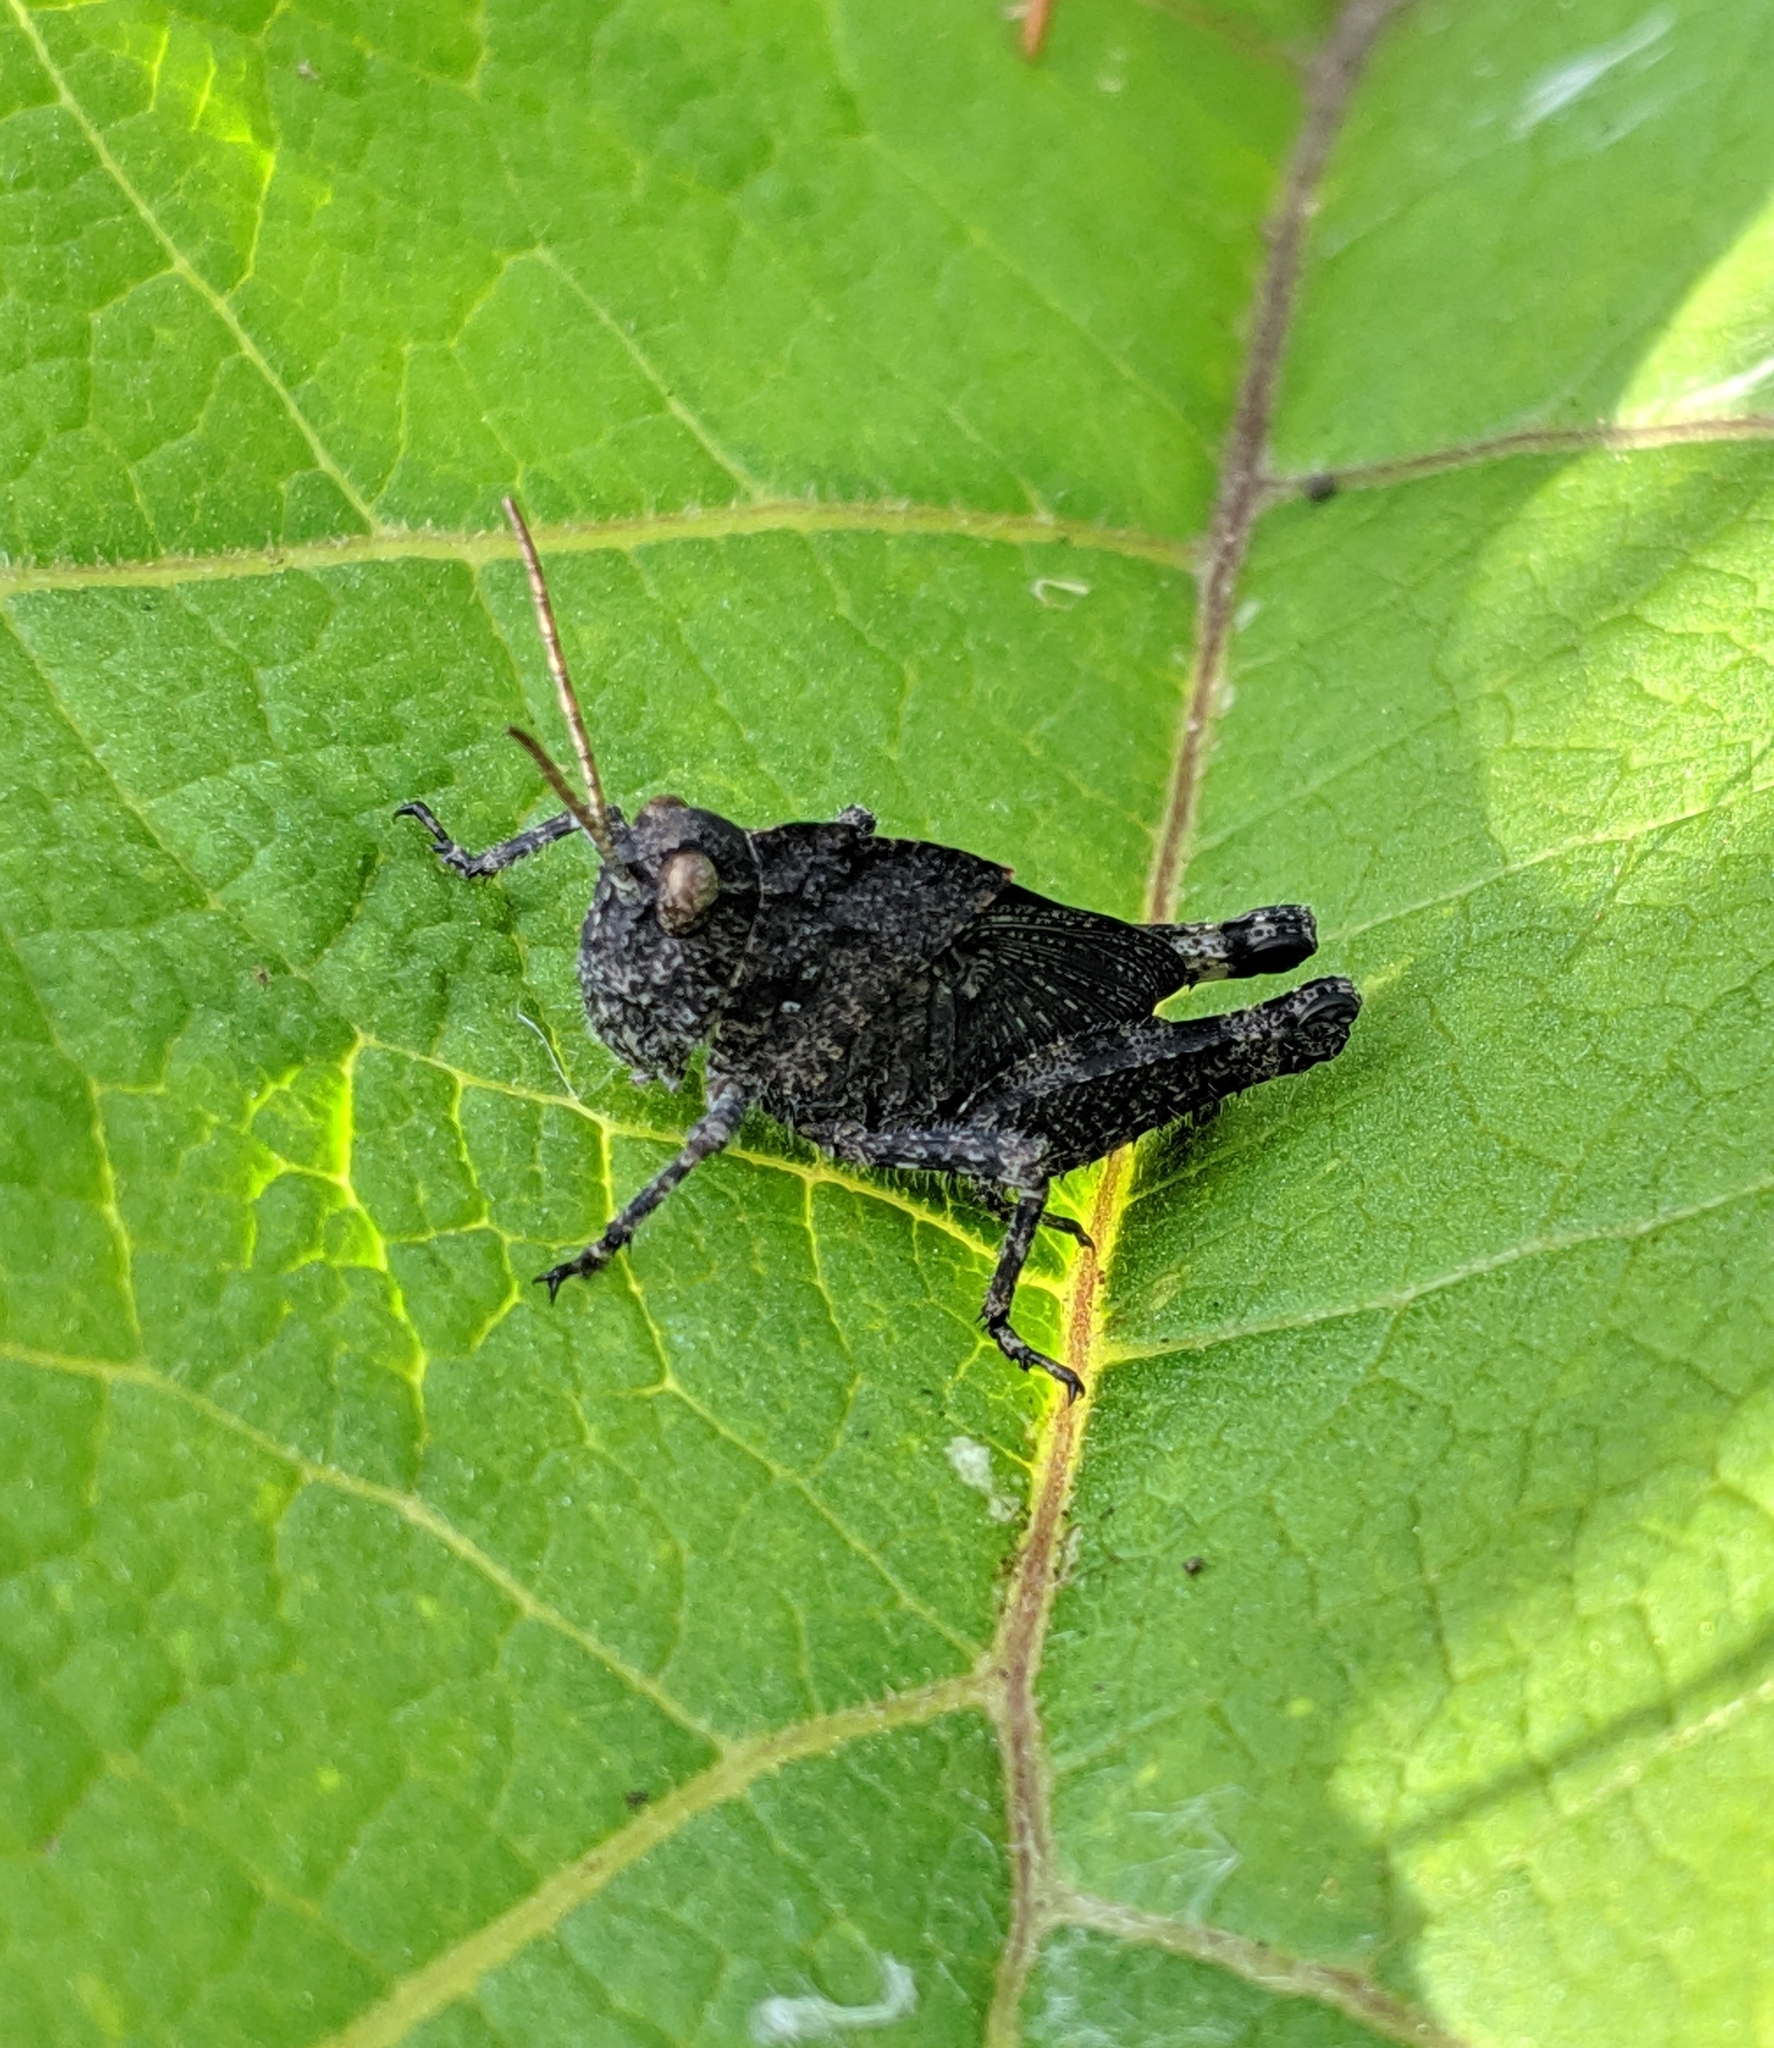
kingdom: Animalia
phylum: Arthropoda
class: Insecta
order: Orthoptera
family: Acrididae
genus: Dissosteira
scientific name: Dissosteira carolina
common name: Carolina grasshopper
